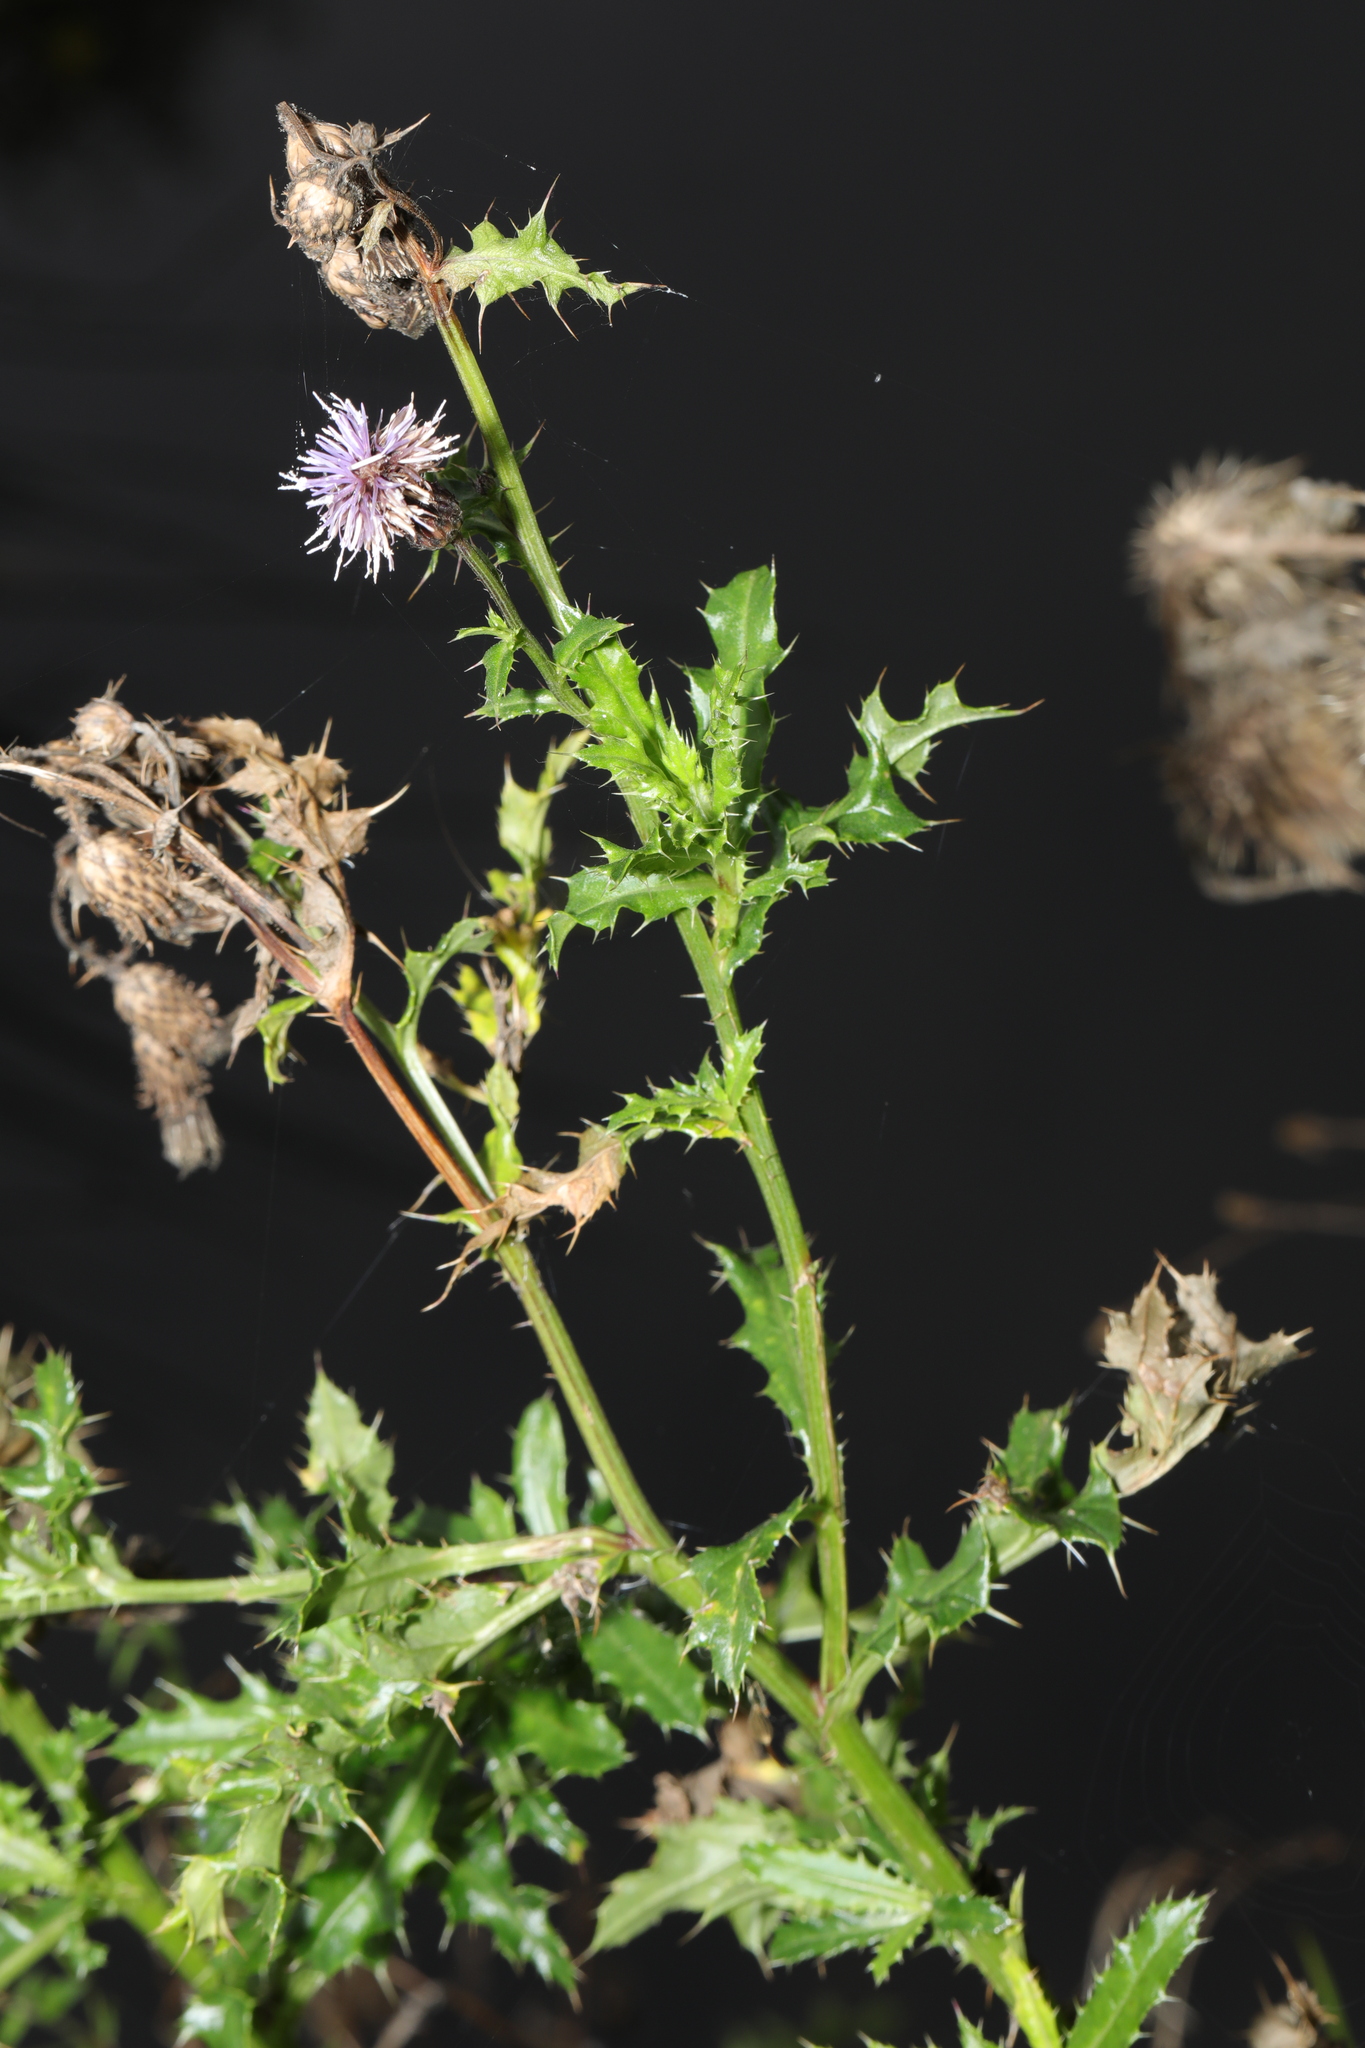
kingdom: Plantae
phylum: Tracheophyta
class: Magnoliopsida
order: Asterales
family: Asteraceae
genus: Cirsium
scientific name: Cirsium arvense
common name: Creeping thistle
